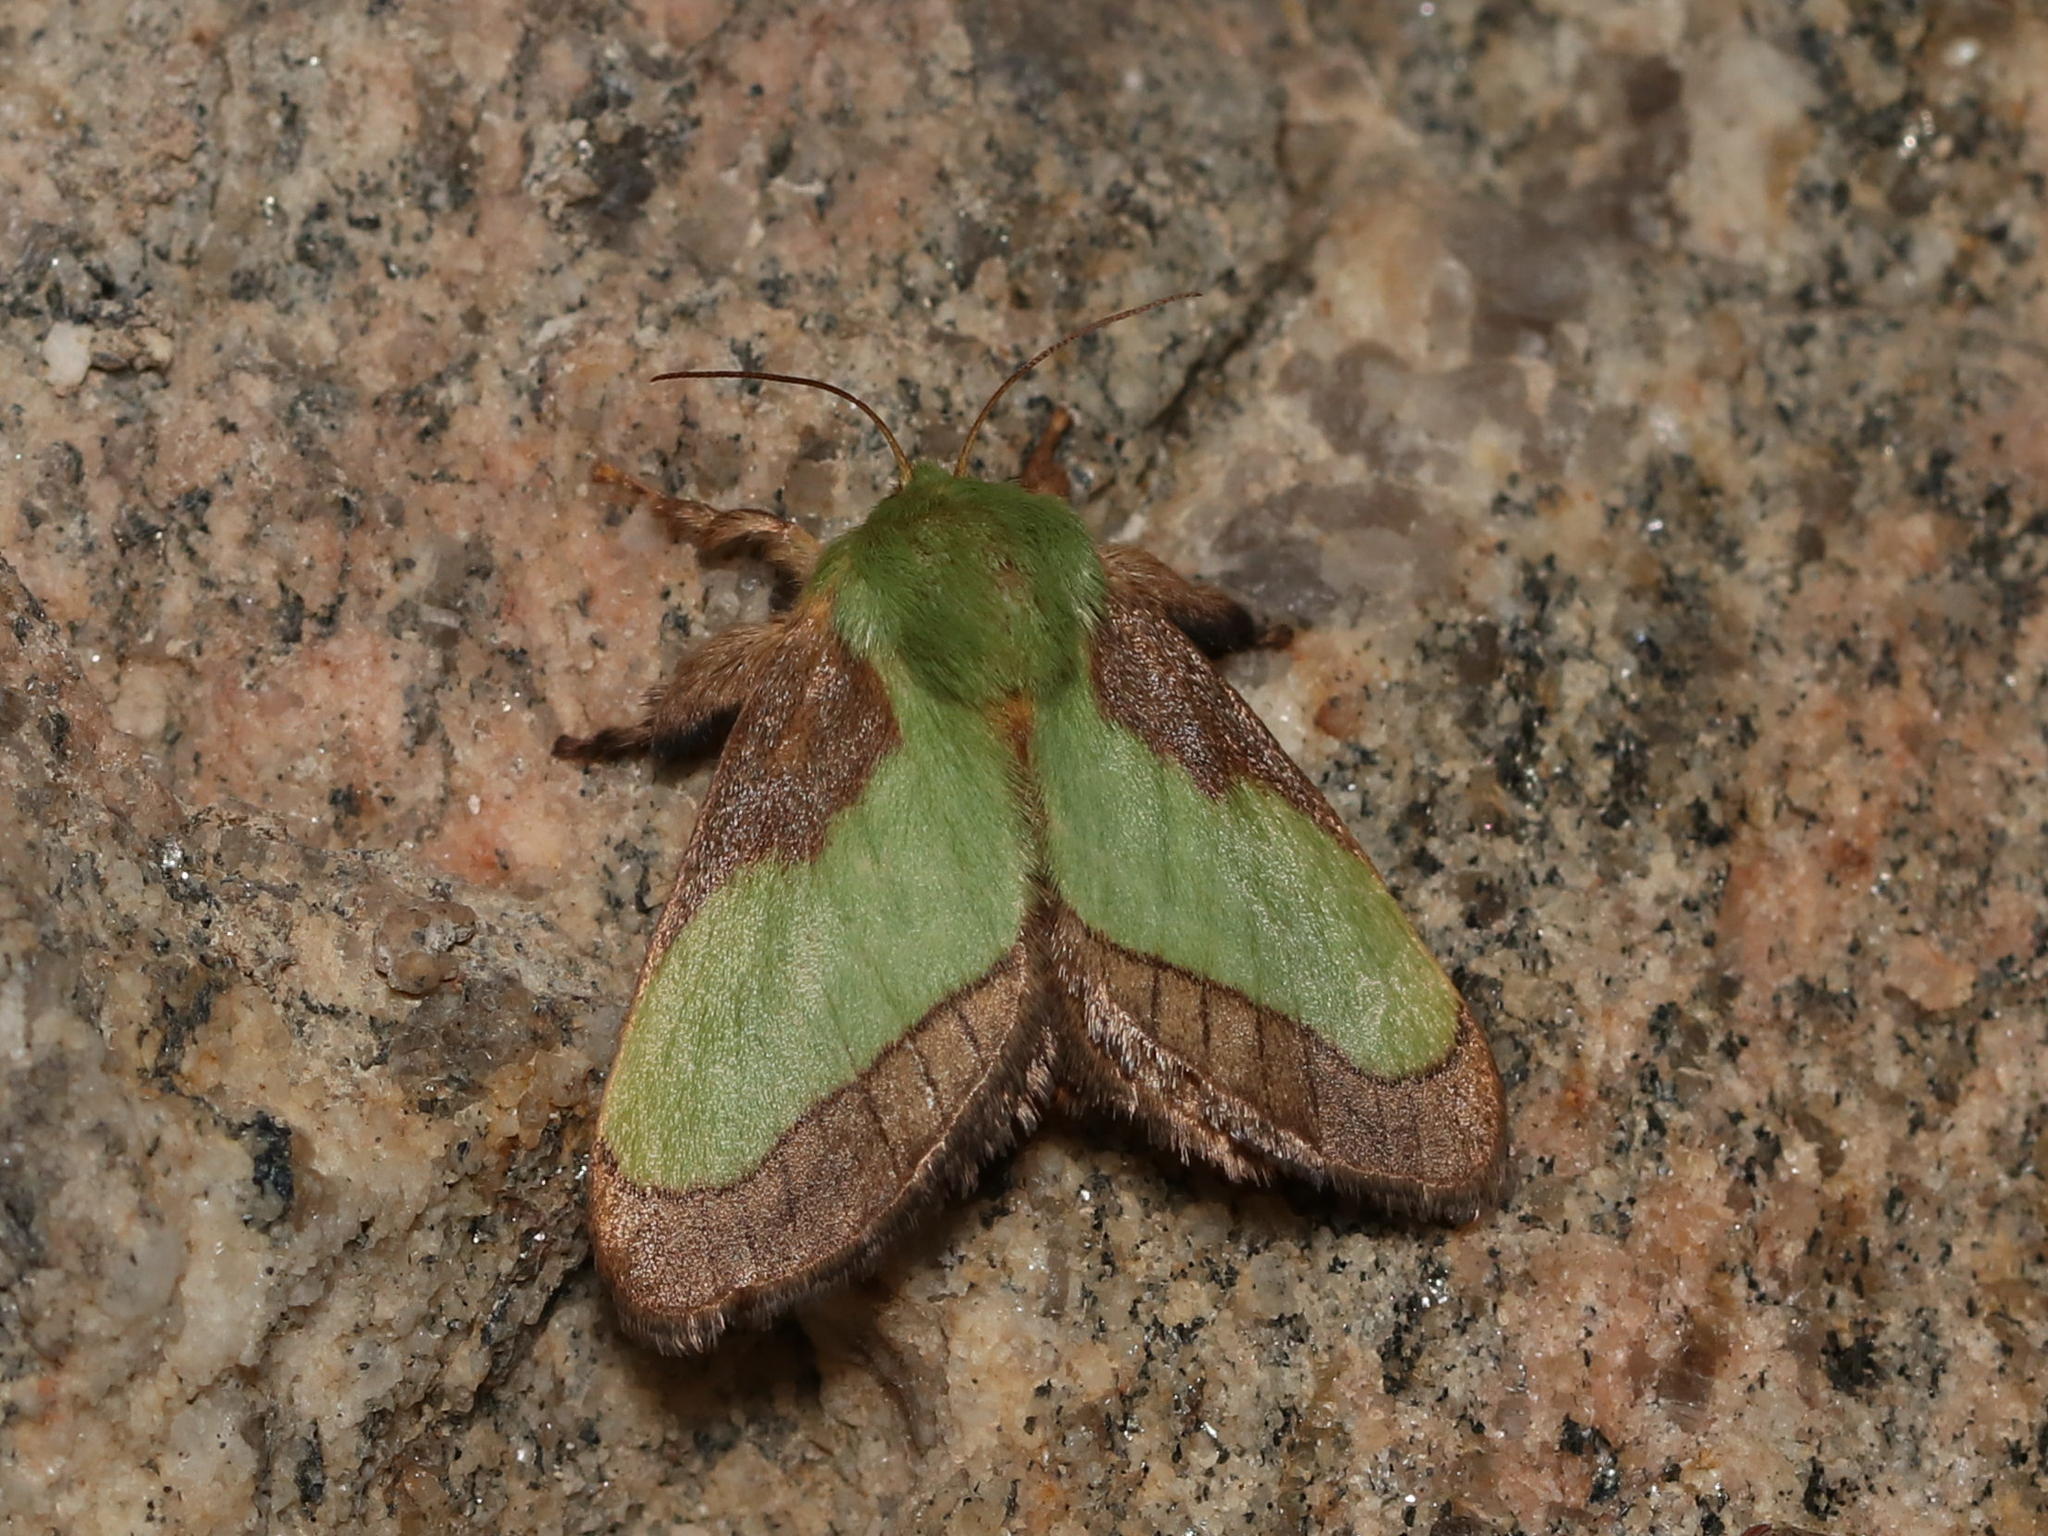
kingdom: Animalia
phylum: Arthropoda
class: Insecta
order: Lepidoptera
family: Limacodidae
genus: Parasa
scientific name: Parasa chloris
